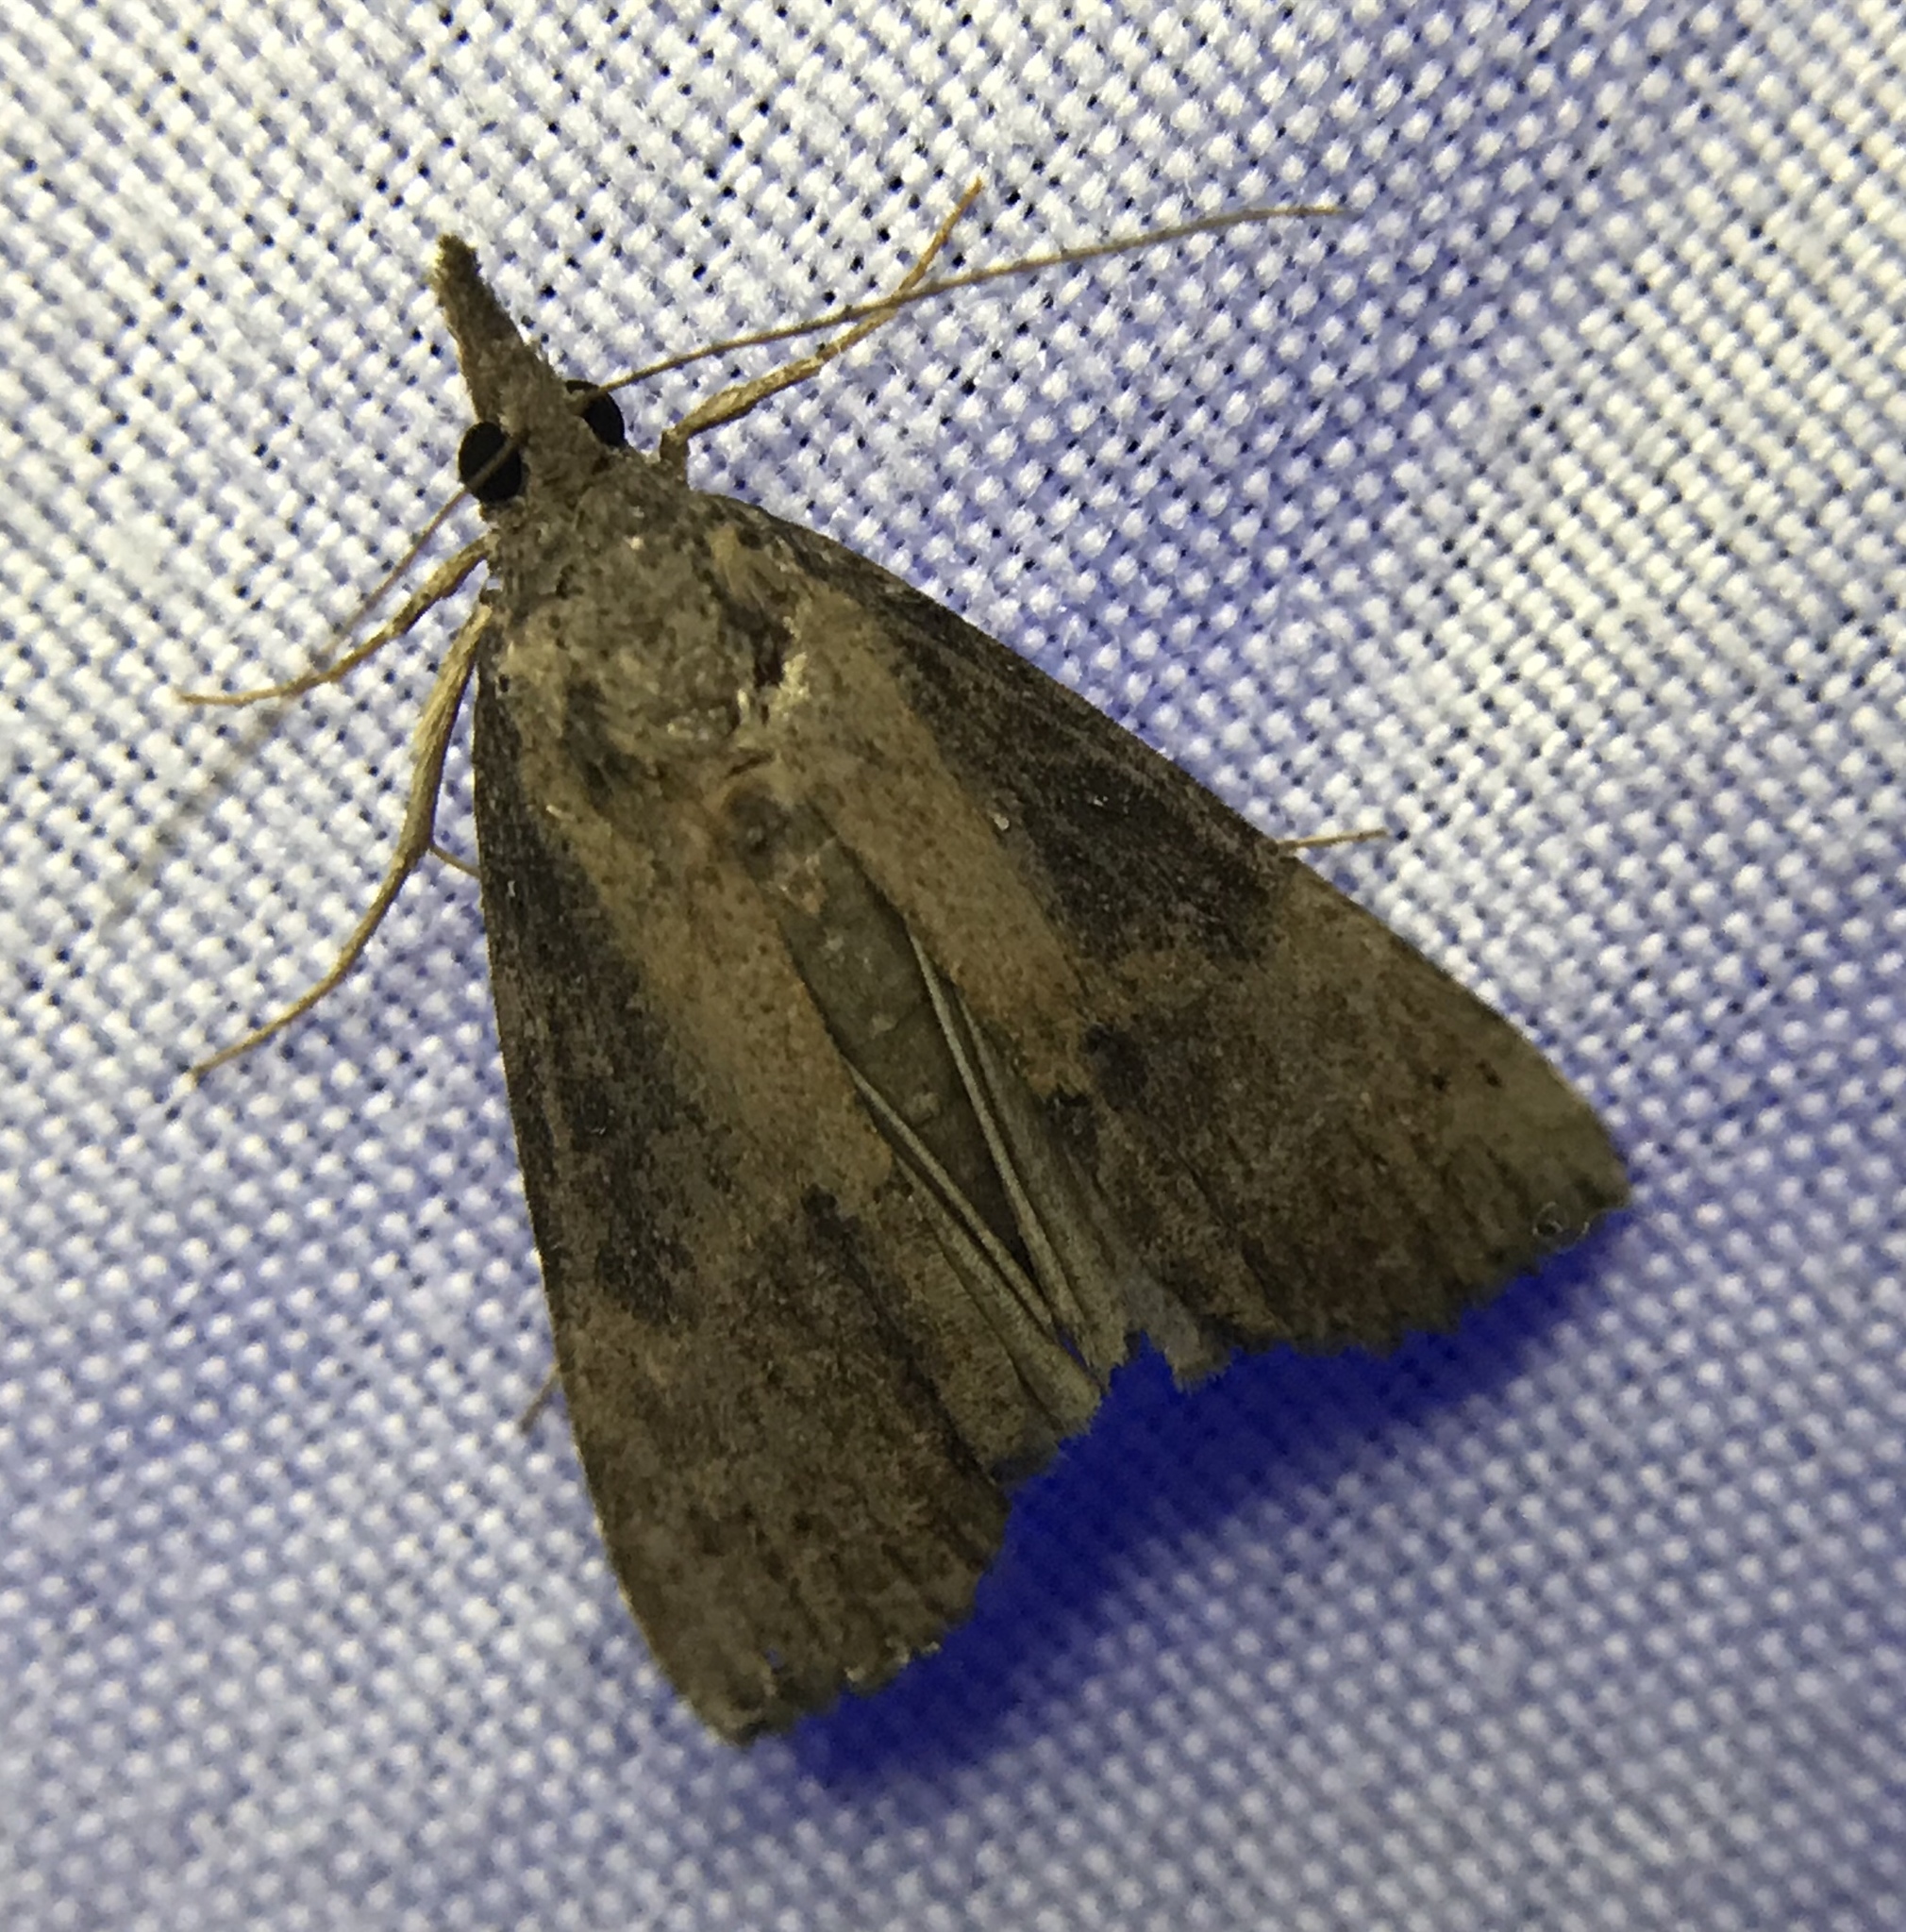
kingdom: Animalia
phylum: Arthropoda
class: Insecta
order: Lepidoptera
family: Erebidae
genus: Hypena
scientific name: Hypena scabra
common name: Green cloverworm
